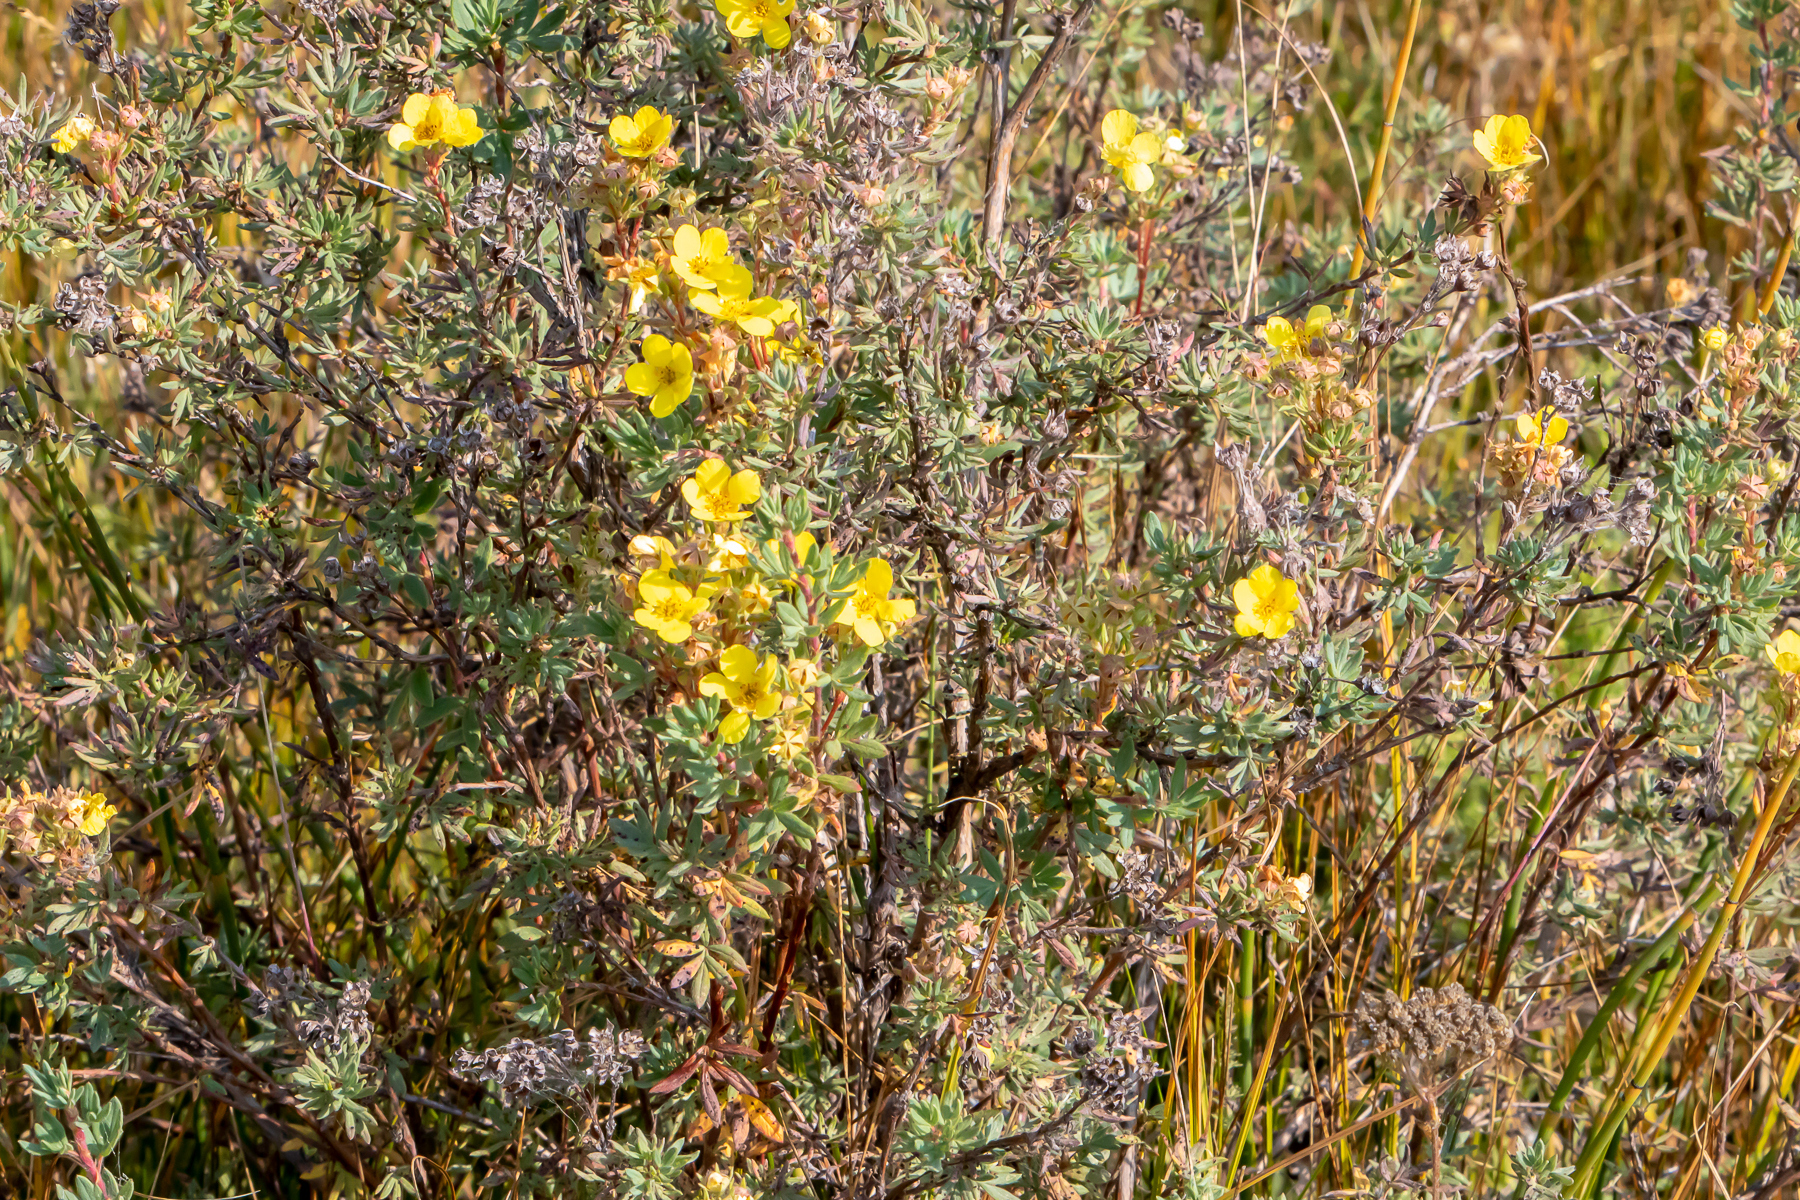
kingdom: Plantae
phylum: Tracheophyta
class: Magnoliopsida
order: Rosales
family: Rosaceae
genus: Dasiphora
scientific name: Dasiphora fruticosa
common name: Shrubby cinquefoil
